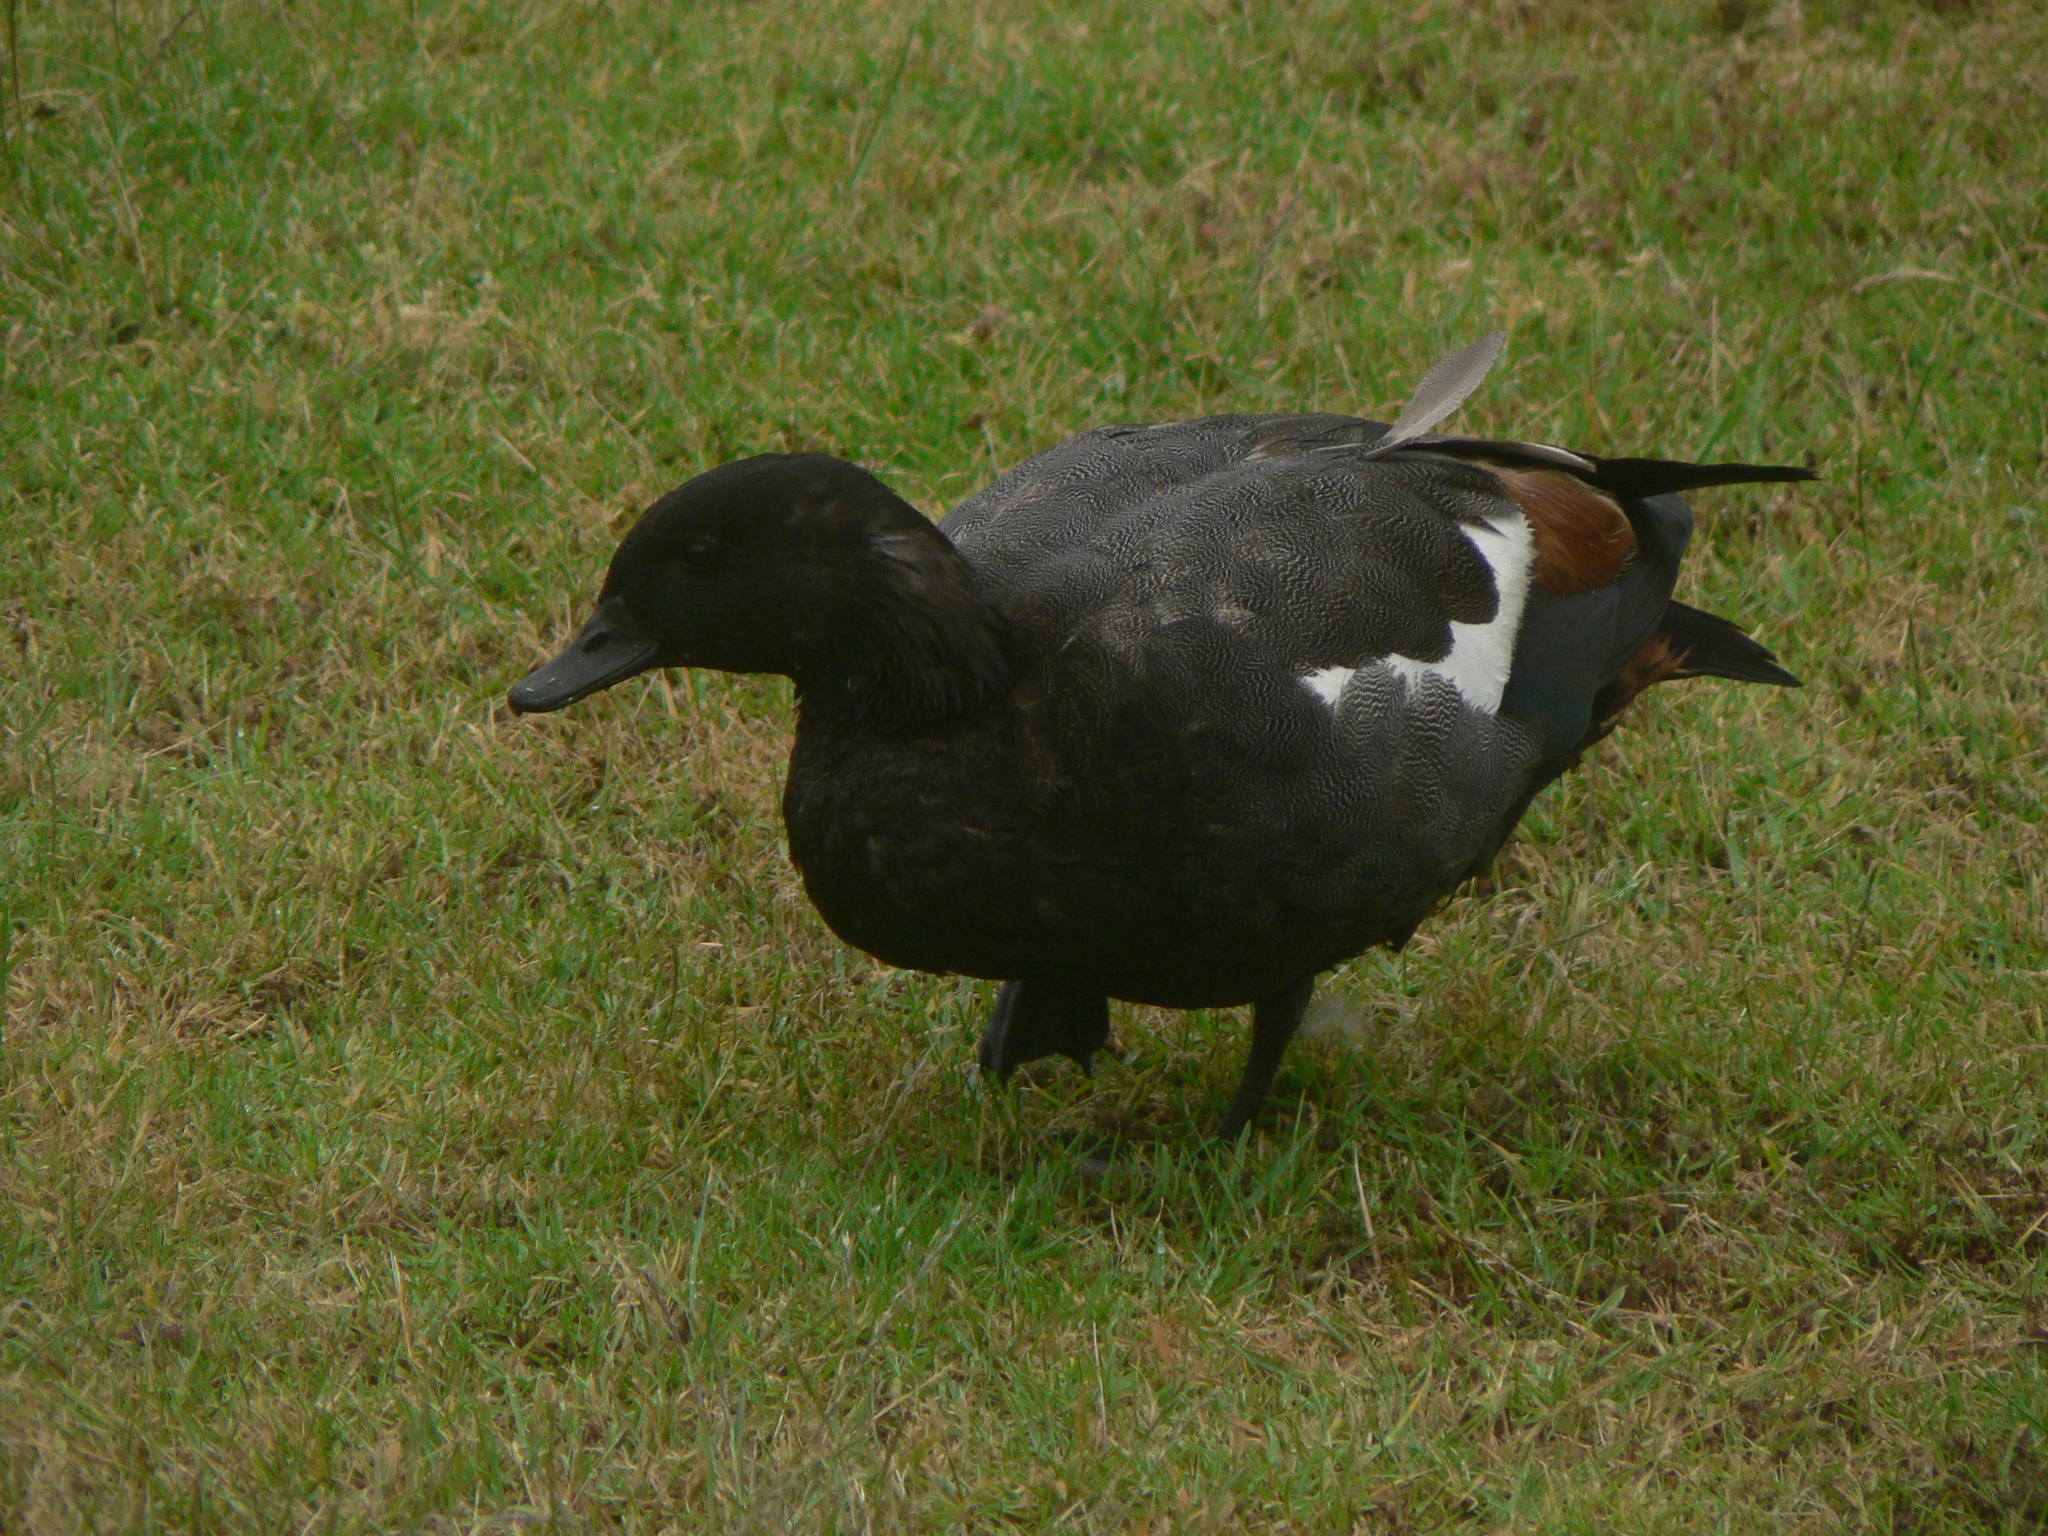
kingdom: Animalia
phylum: Chordata
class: Aves
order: Anseriformes
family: Anatidae
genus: Tadorna
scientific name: Tadorna variegata
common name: Paradise shelduck
